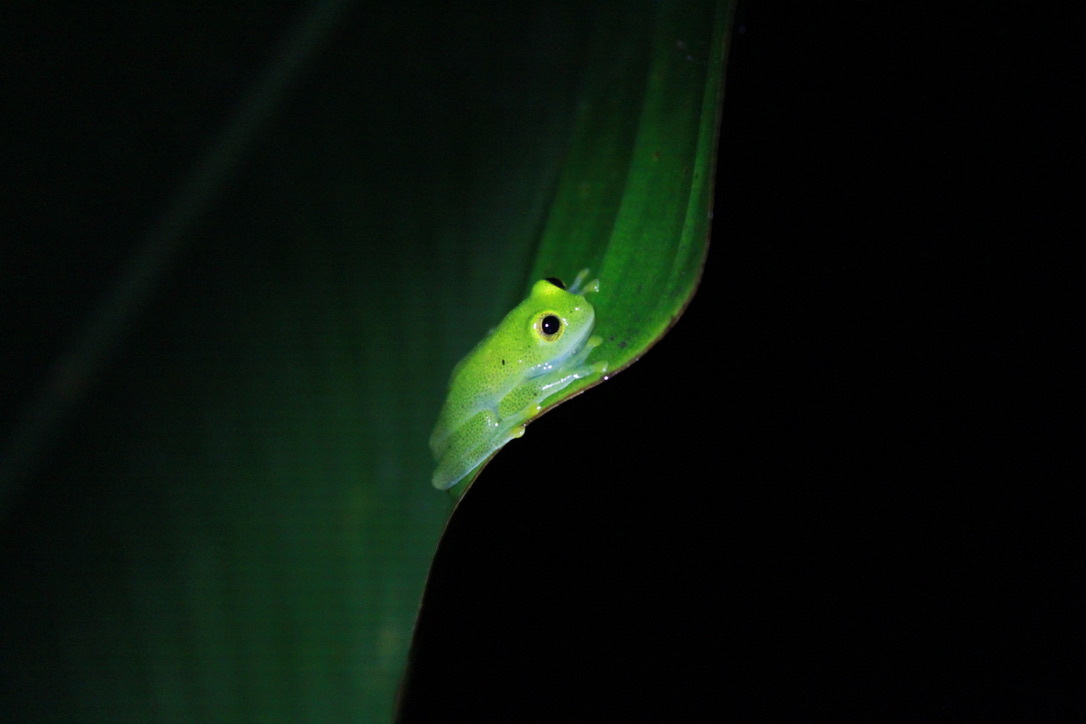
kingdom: Animalia
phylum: Chordata
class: Amphibia
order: Anura
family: Centrolenidae
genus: Hyalinobatrachium
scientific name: Hyalinobatrachium orientale
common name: Eastern glass frog
